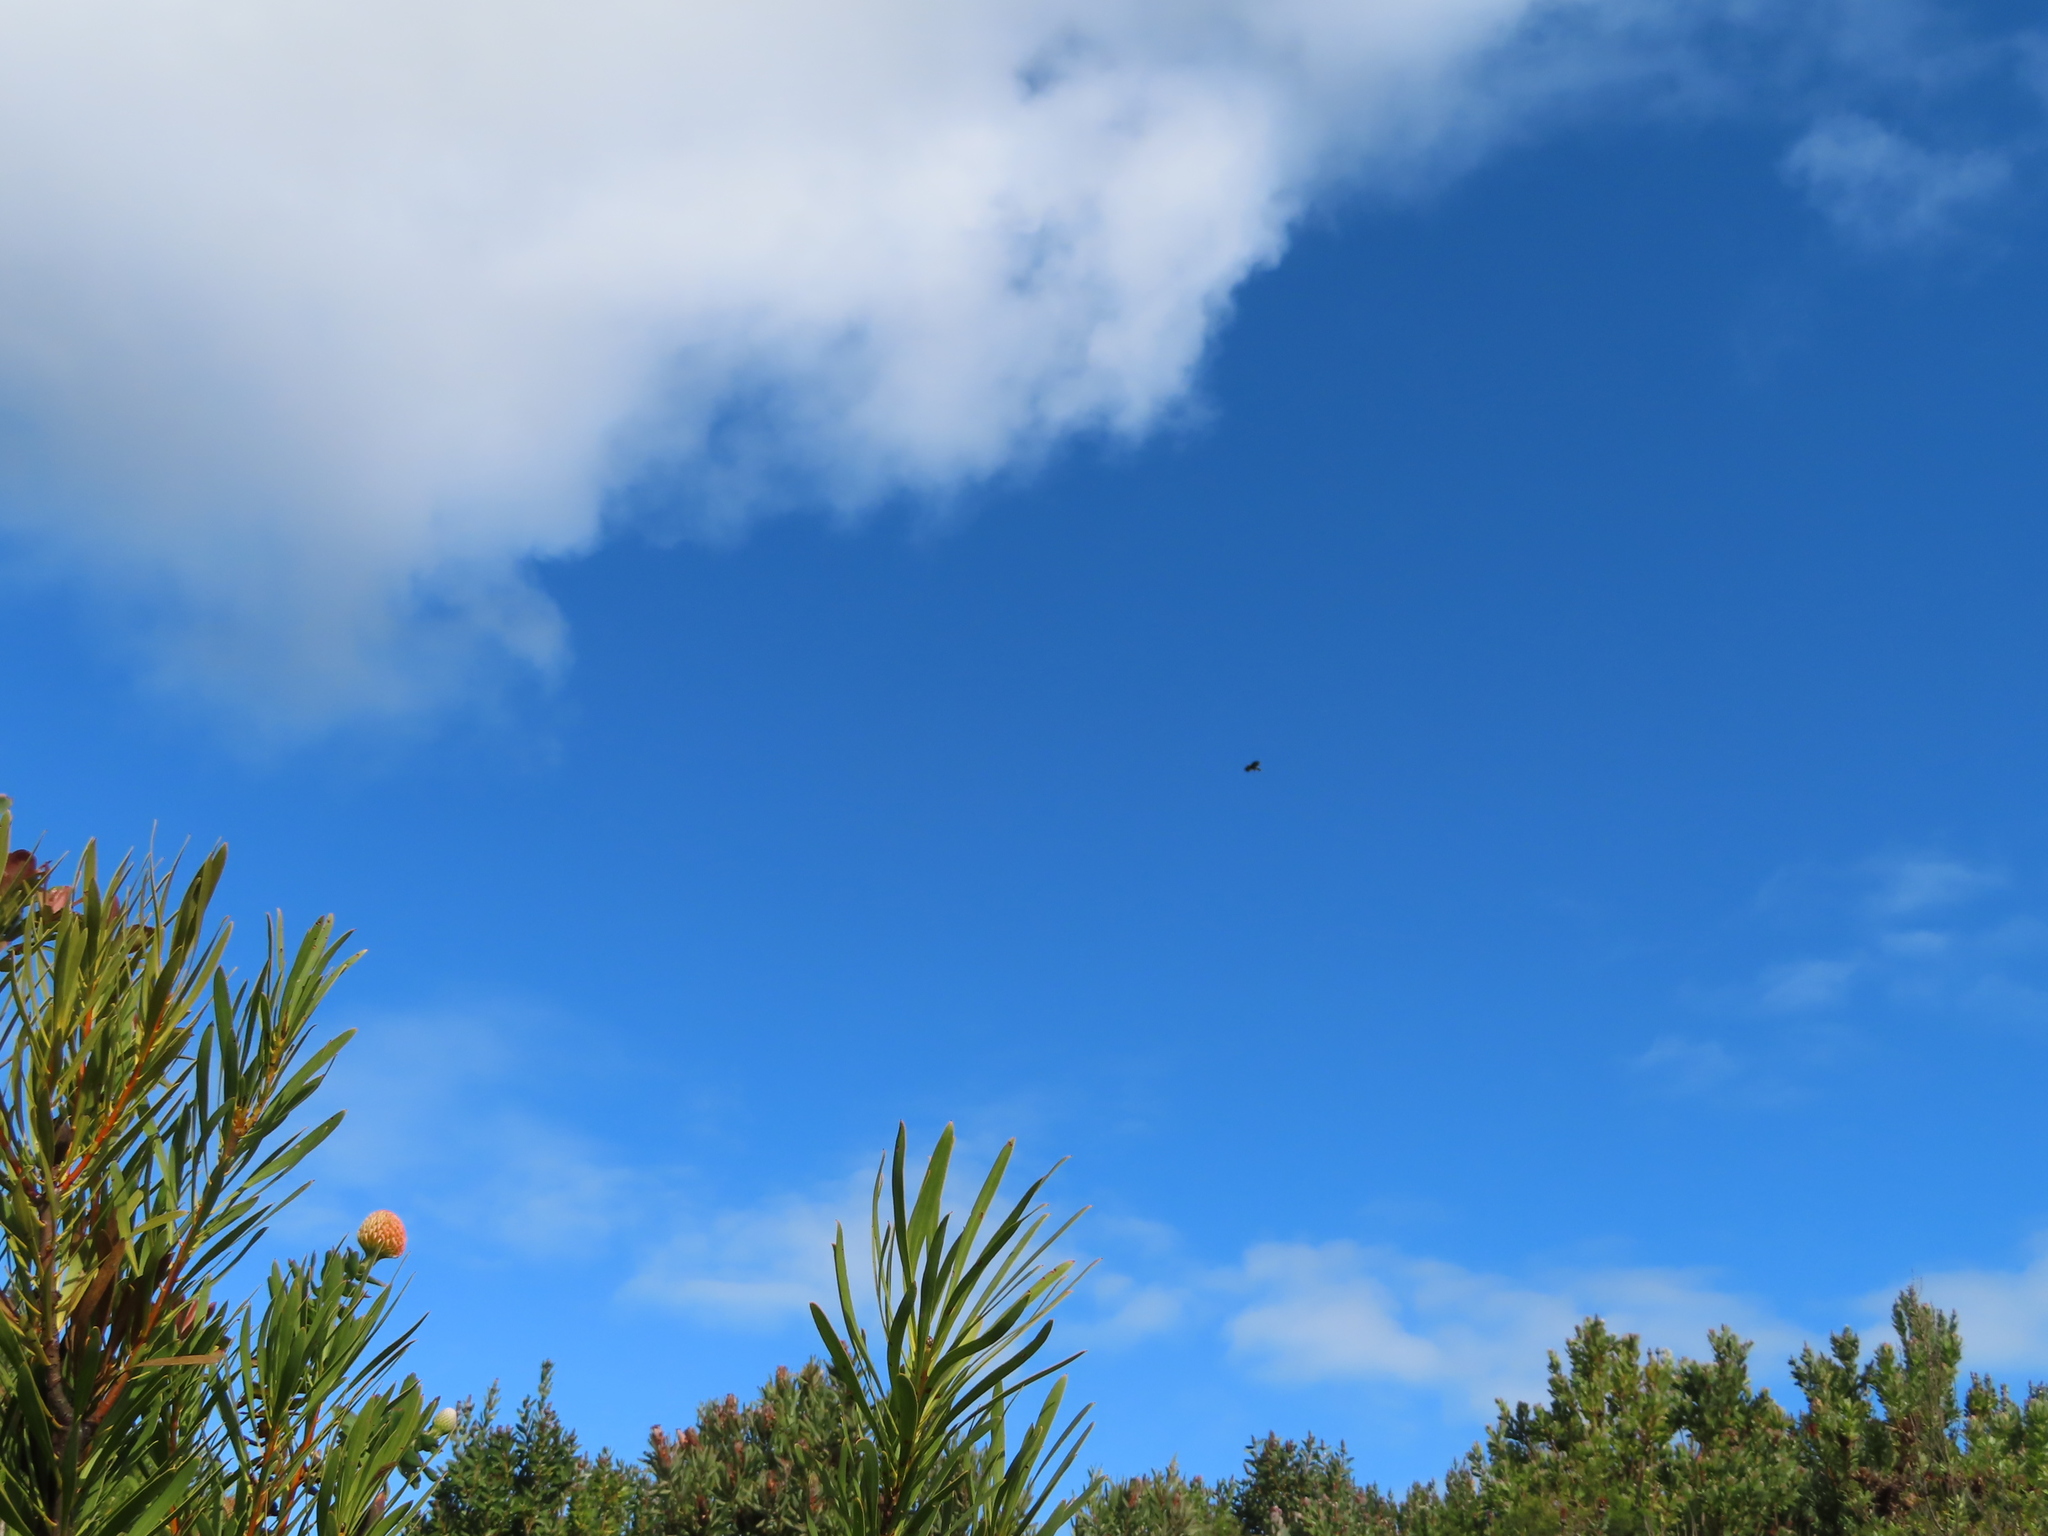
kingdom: Animalia
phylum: Chordata
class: Aves
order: Accipitriformes
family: Accipitridae
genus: Buteo
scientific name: Buteo rufofuscus
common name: Jackal buzzard
